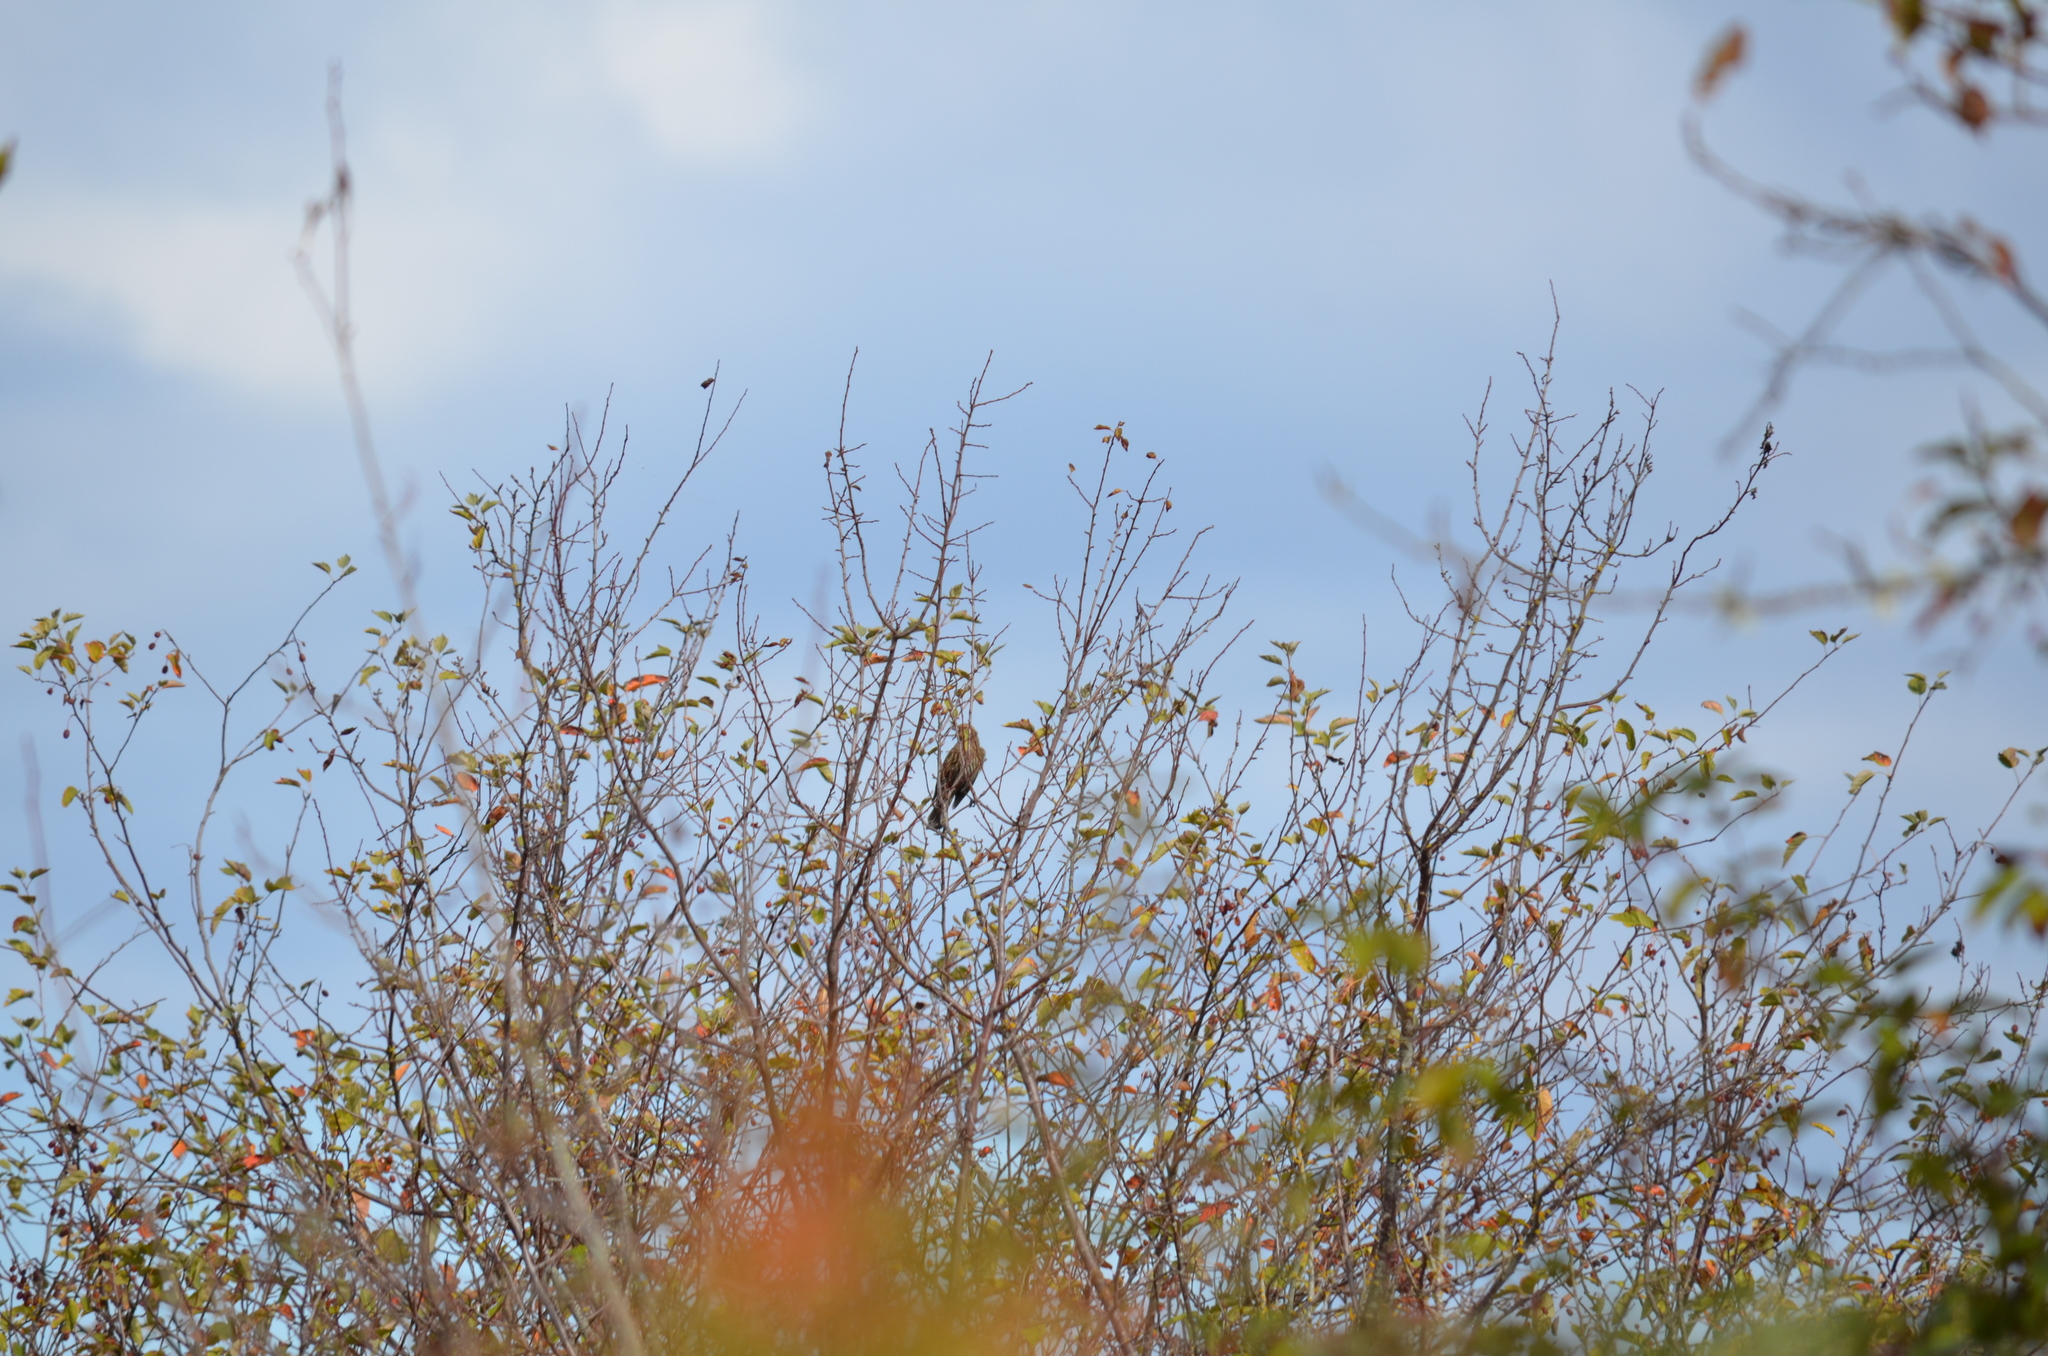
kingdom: Animalia
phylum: Chordata
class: Aves
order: Passeriformes
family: Icteridae
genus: Agelaius
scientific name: Agelaius phoeniceus
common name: Red-winged blackbird
